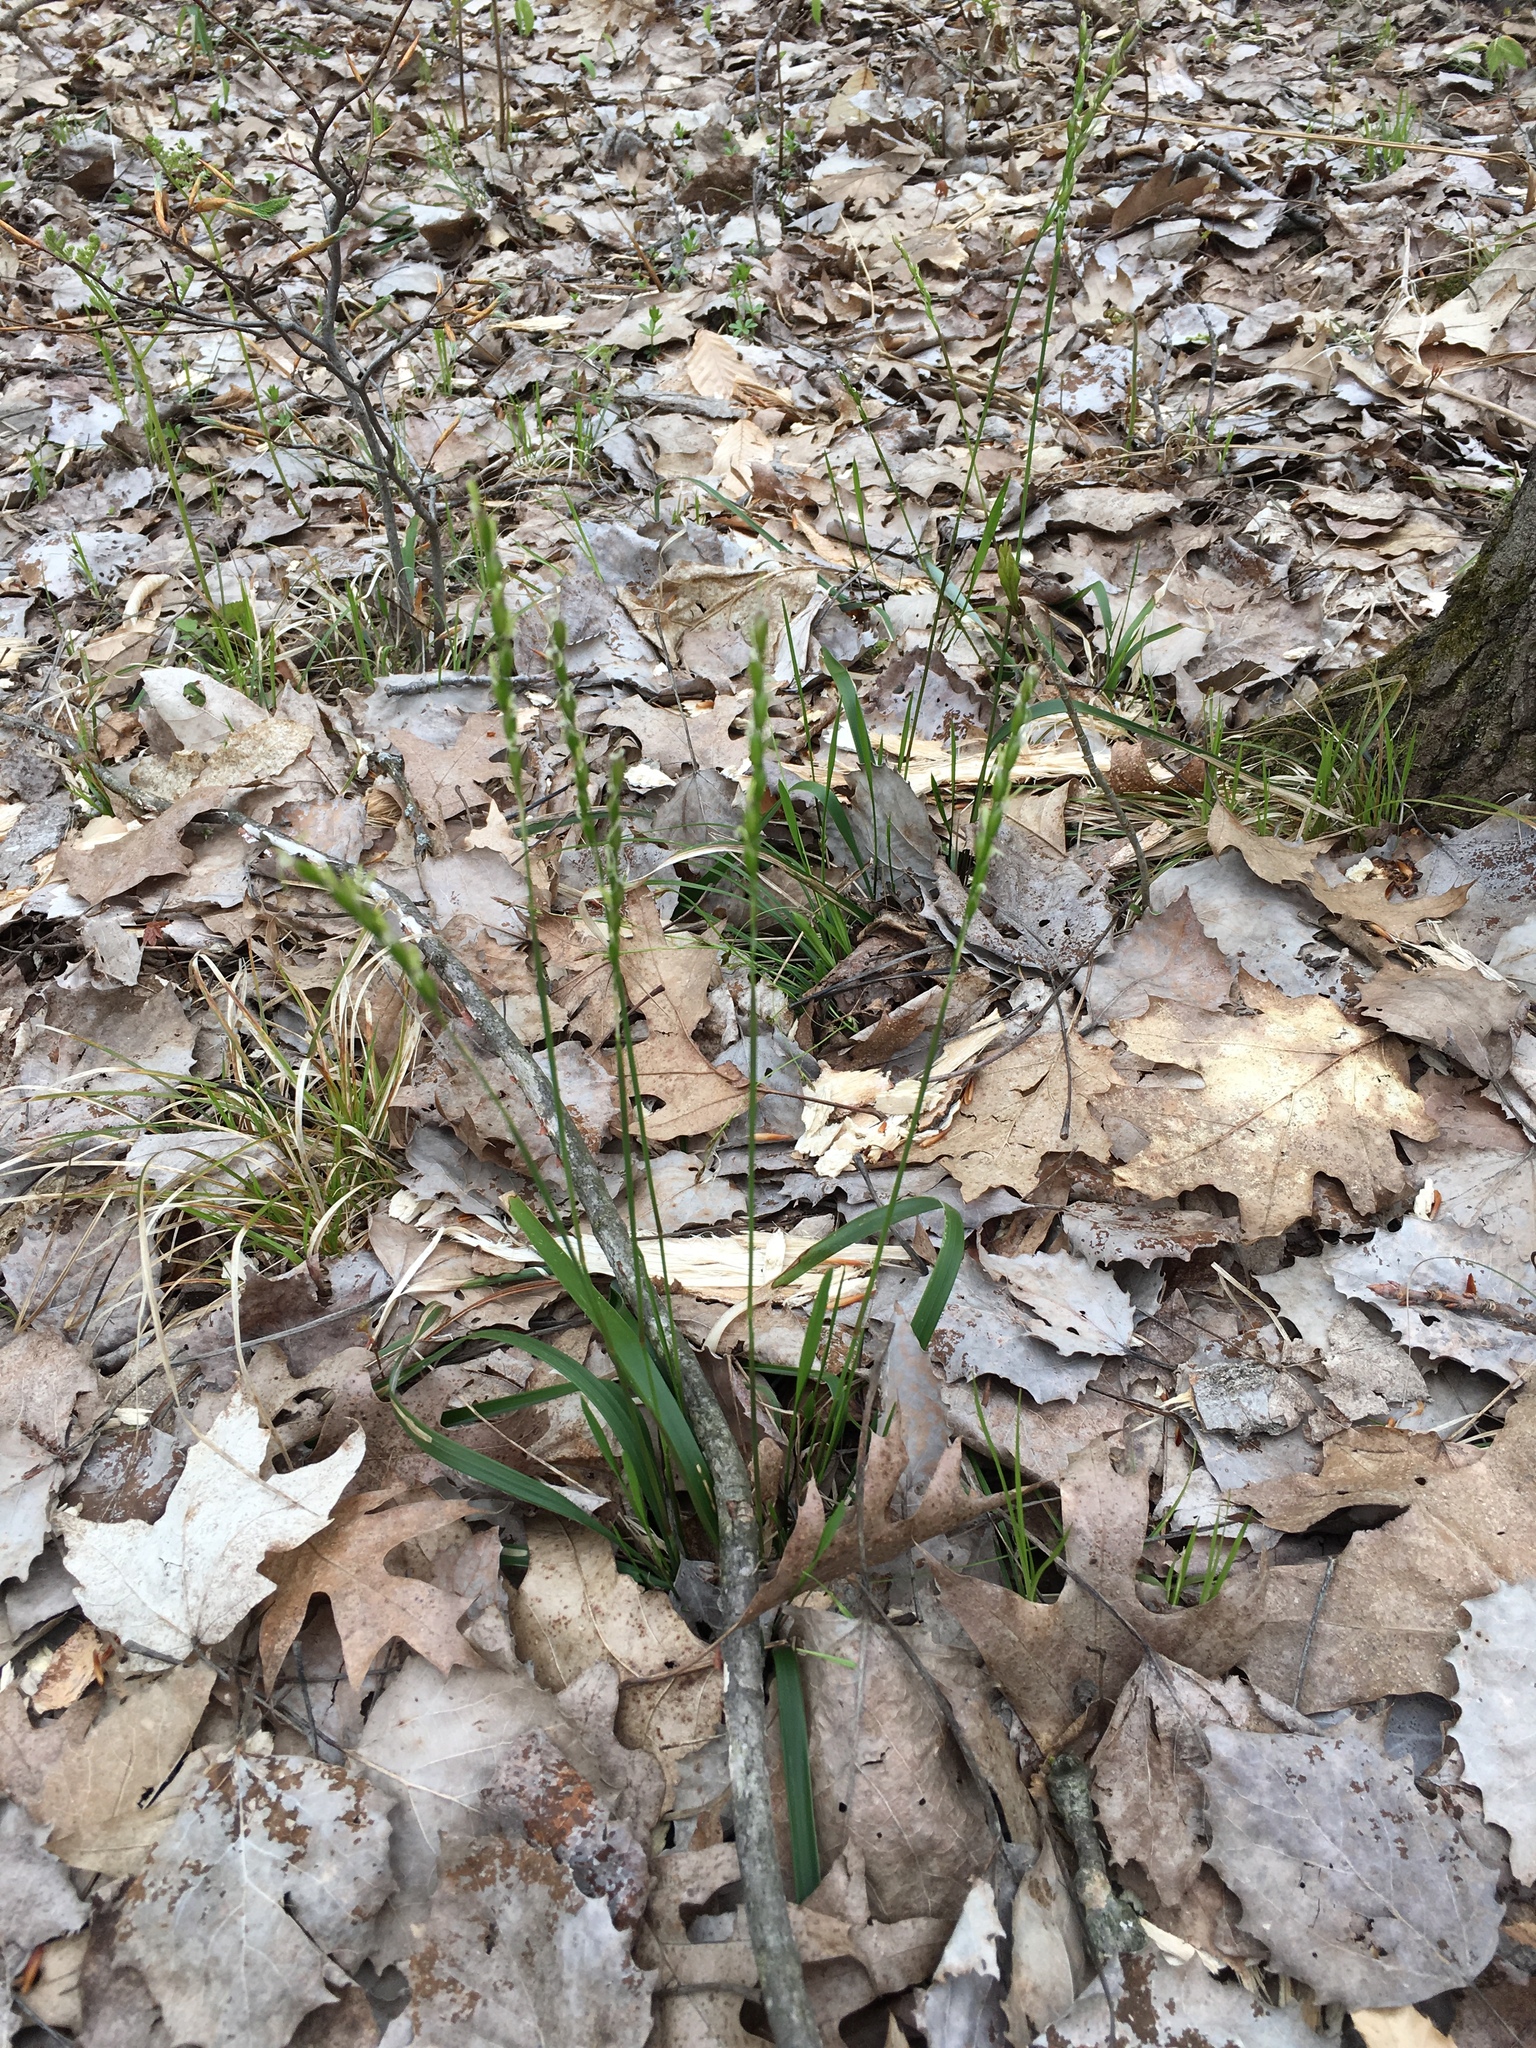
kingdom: Plantae
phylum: Tracheophyta
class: Liliopsida
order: Poales
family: Poaceae
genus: Oryzopsis
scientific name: Oryzopsis asperifolia
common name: Rough-leaved mountain rice
